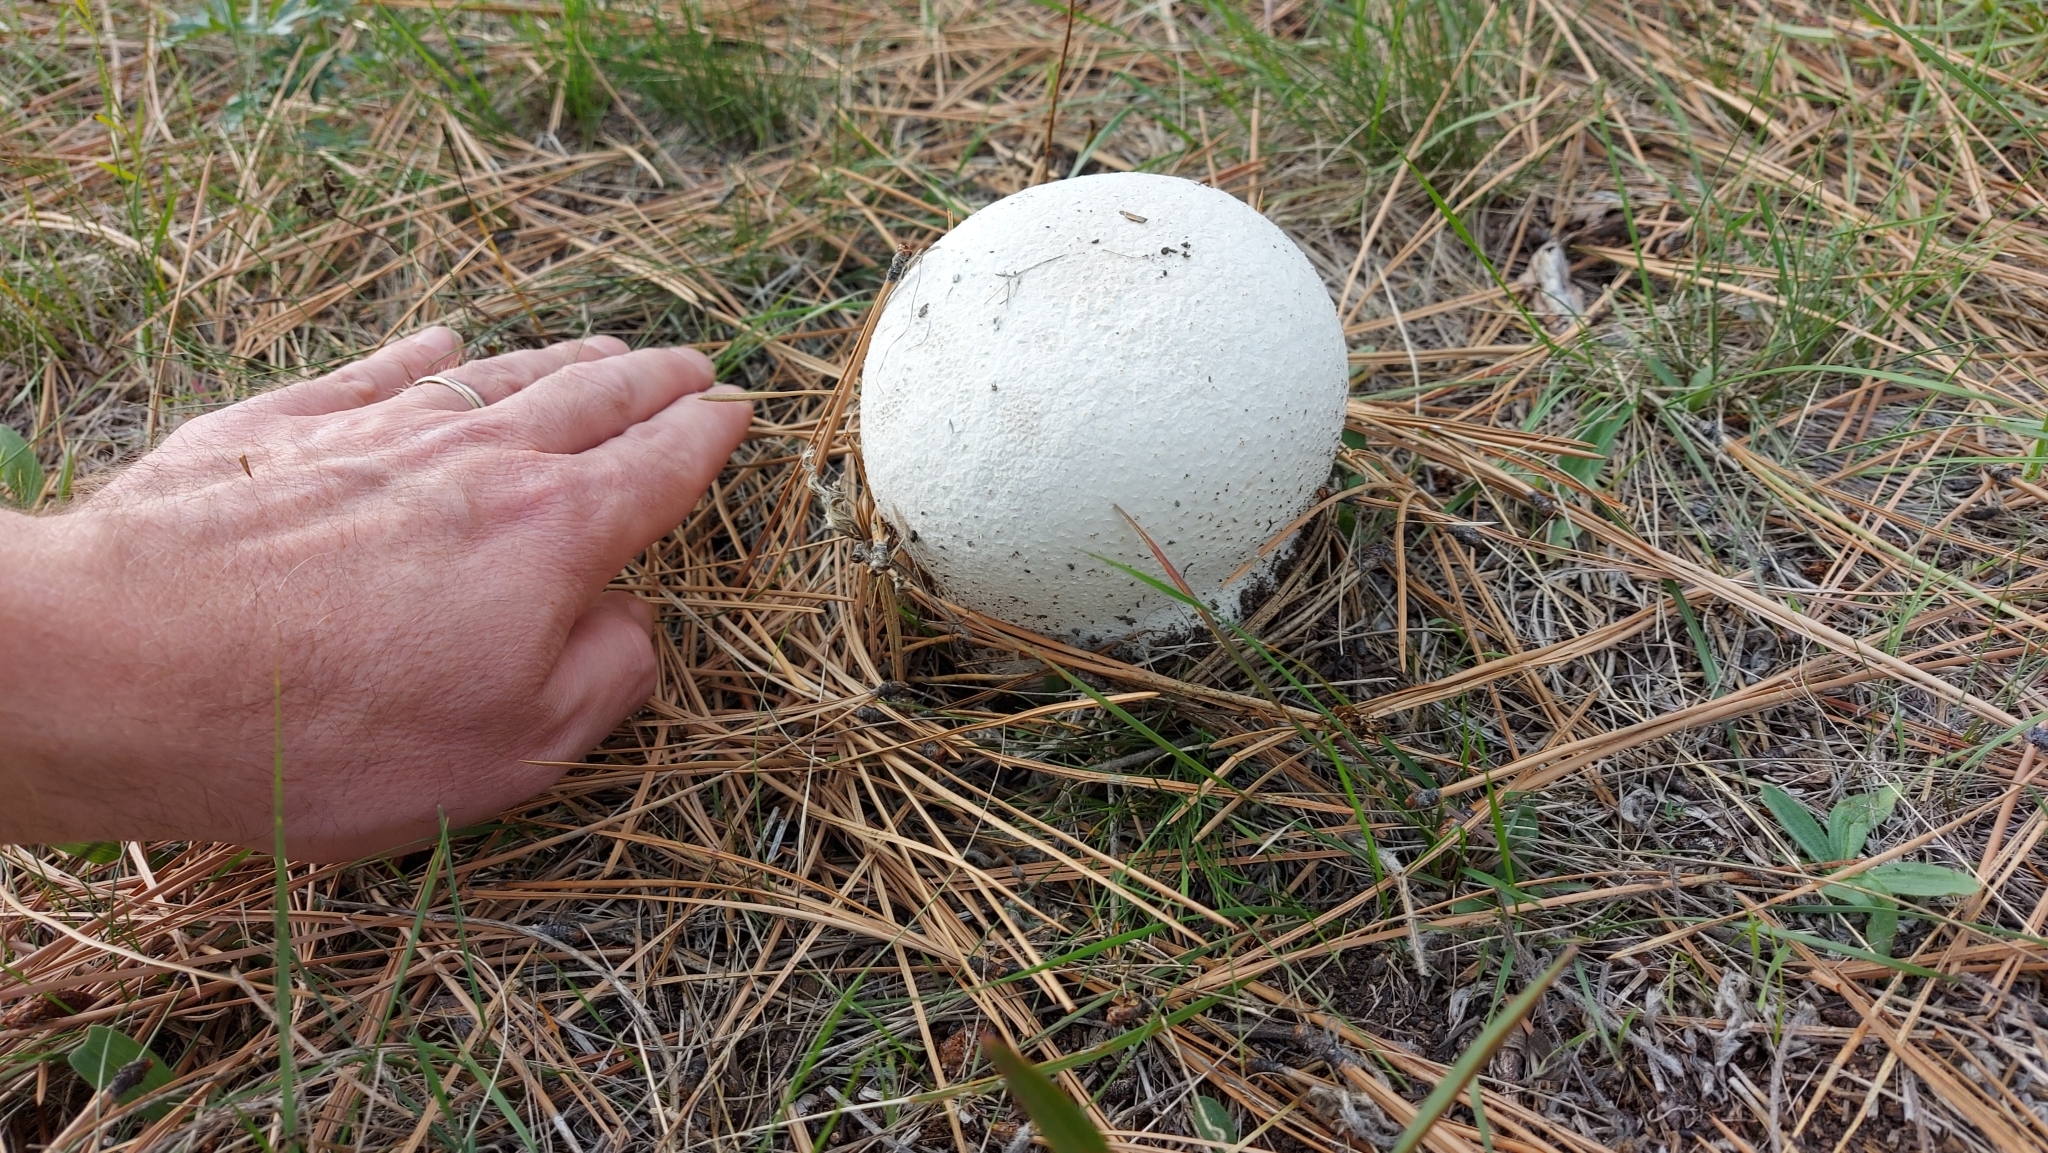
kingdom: Fungi
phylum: Basidiomycota
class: Agaricomycetes
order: Agaricales
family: Lycoperdaceae
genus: Calvatia
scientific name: Calvatia booniana
